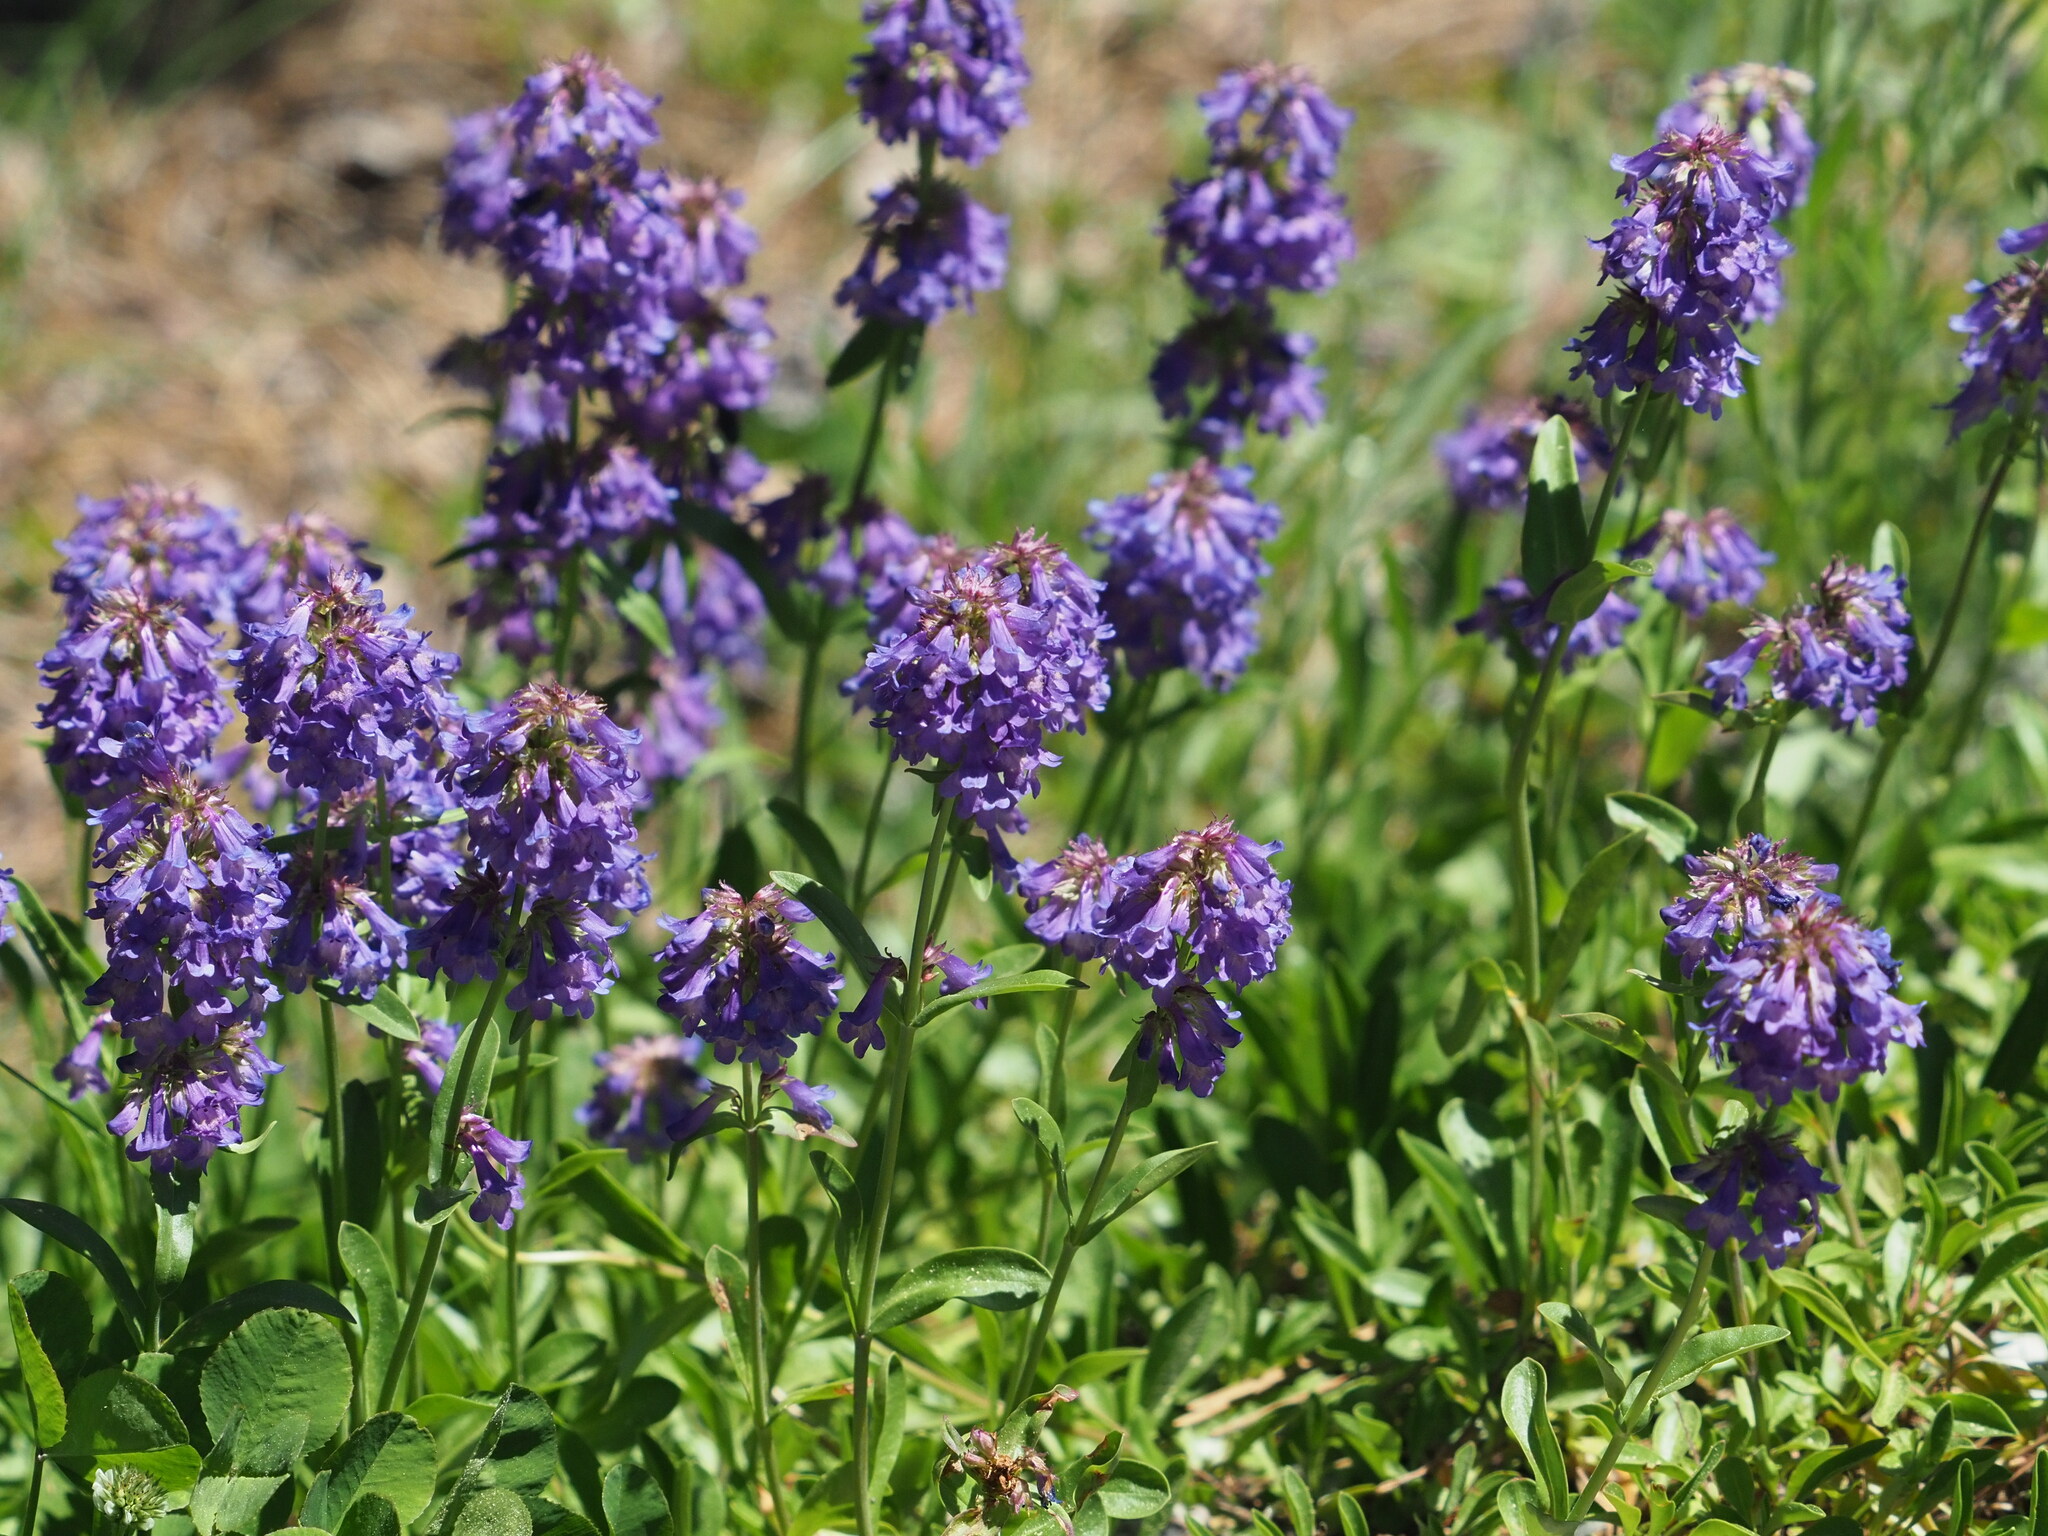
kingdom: Plantae
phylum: Tracheophyta
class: Magnoliopsida
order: Lamiales
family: Plantaginaceae
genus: Penstemon
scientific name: Penstemon procerus
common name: Small-flower penstemon
